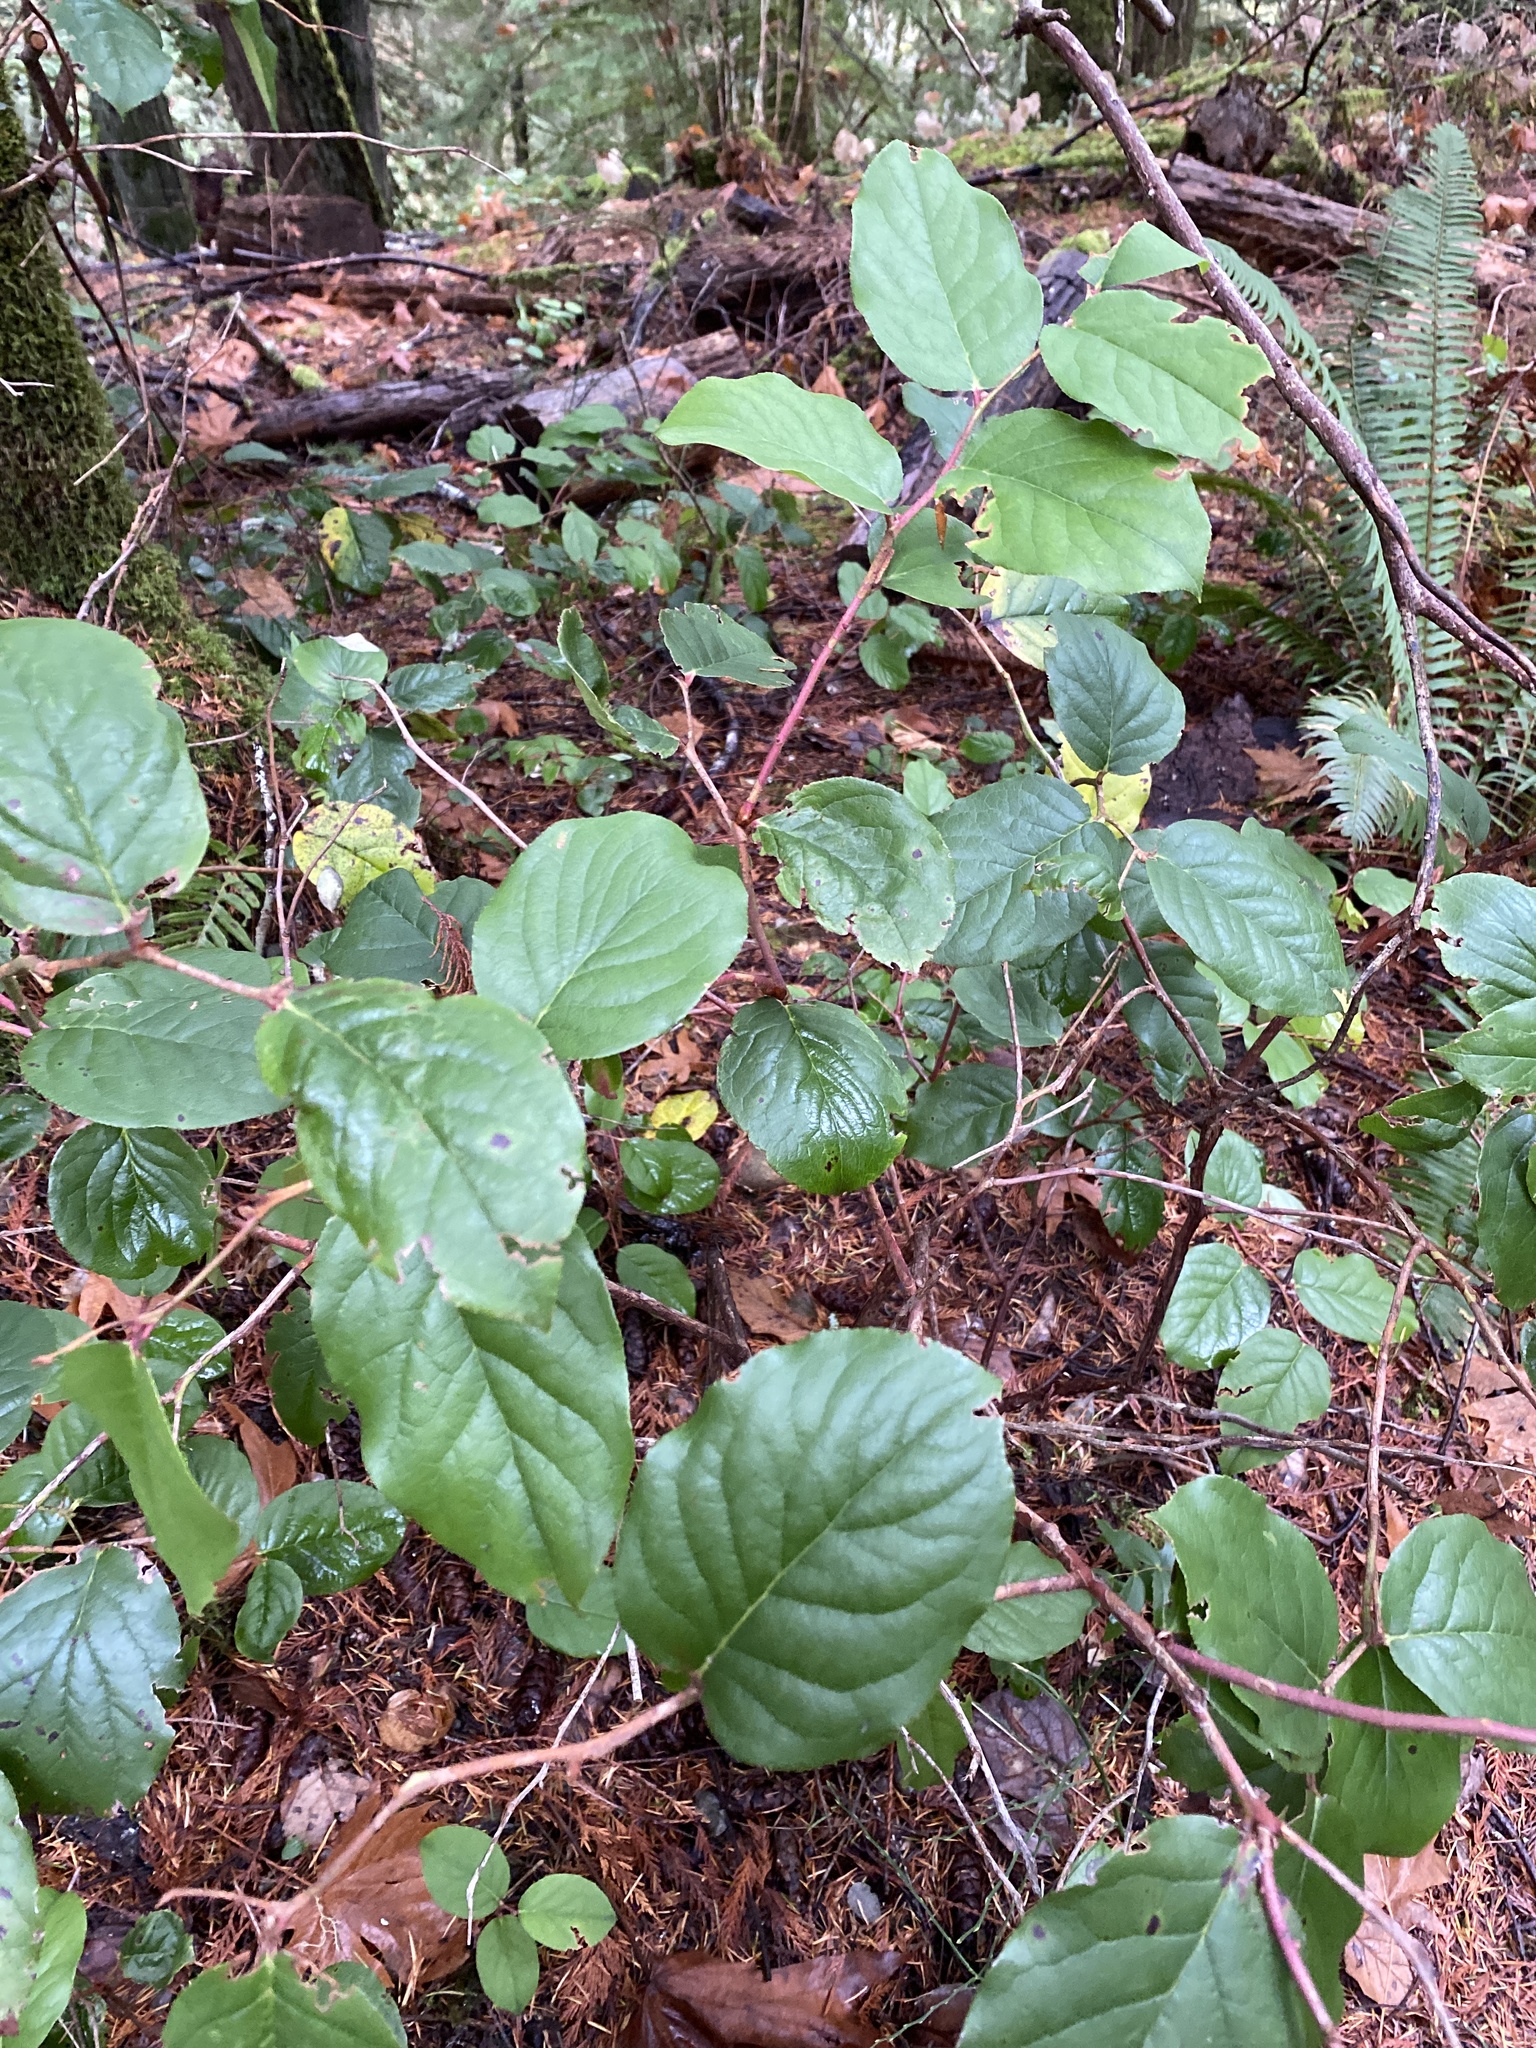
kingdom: Plantae
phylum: Tracheophyta
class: Magnoliopsida
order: Ericales
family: Ericaceae
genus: Gaultheria
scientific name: Gaultheria shallon
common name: Shallon
